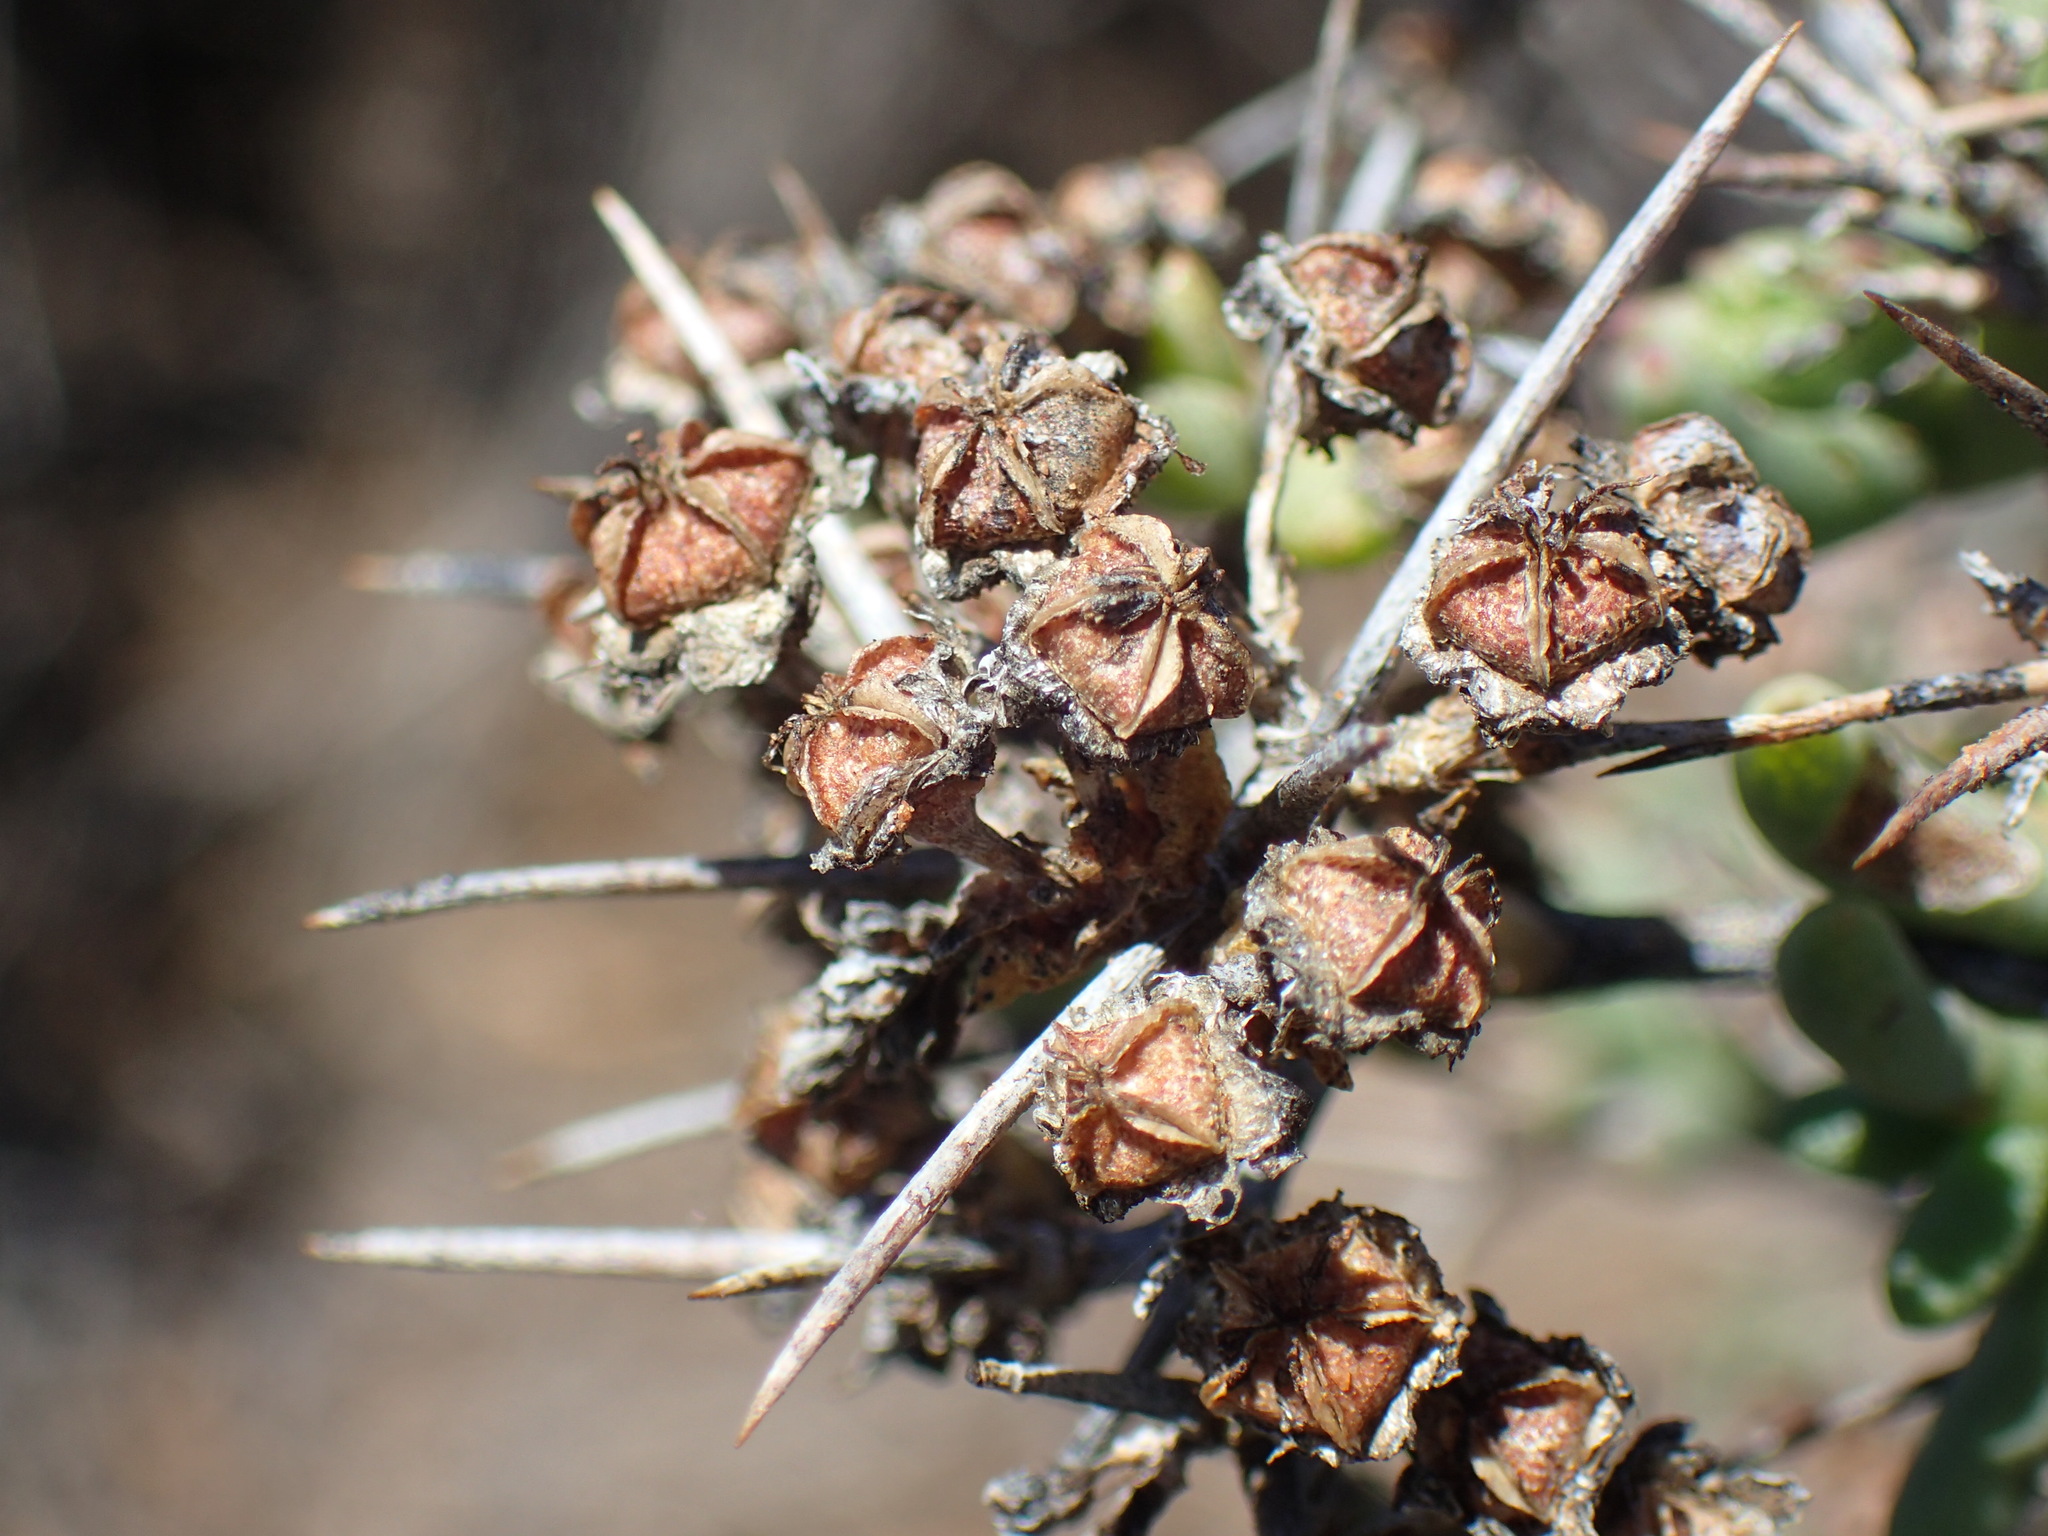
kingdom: Plantae
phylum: Tracheophyta
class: Magnoliopsida
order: Caryophyllales
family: Aizoaceae
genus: Ruschia
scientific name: Ruschia intricata
